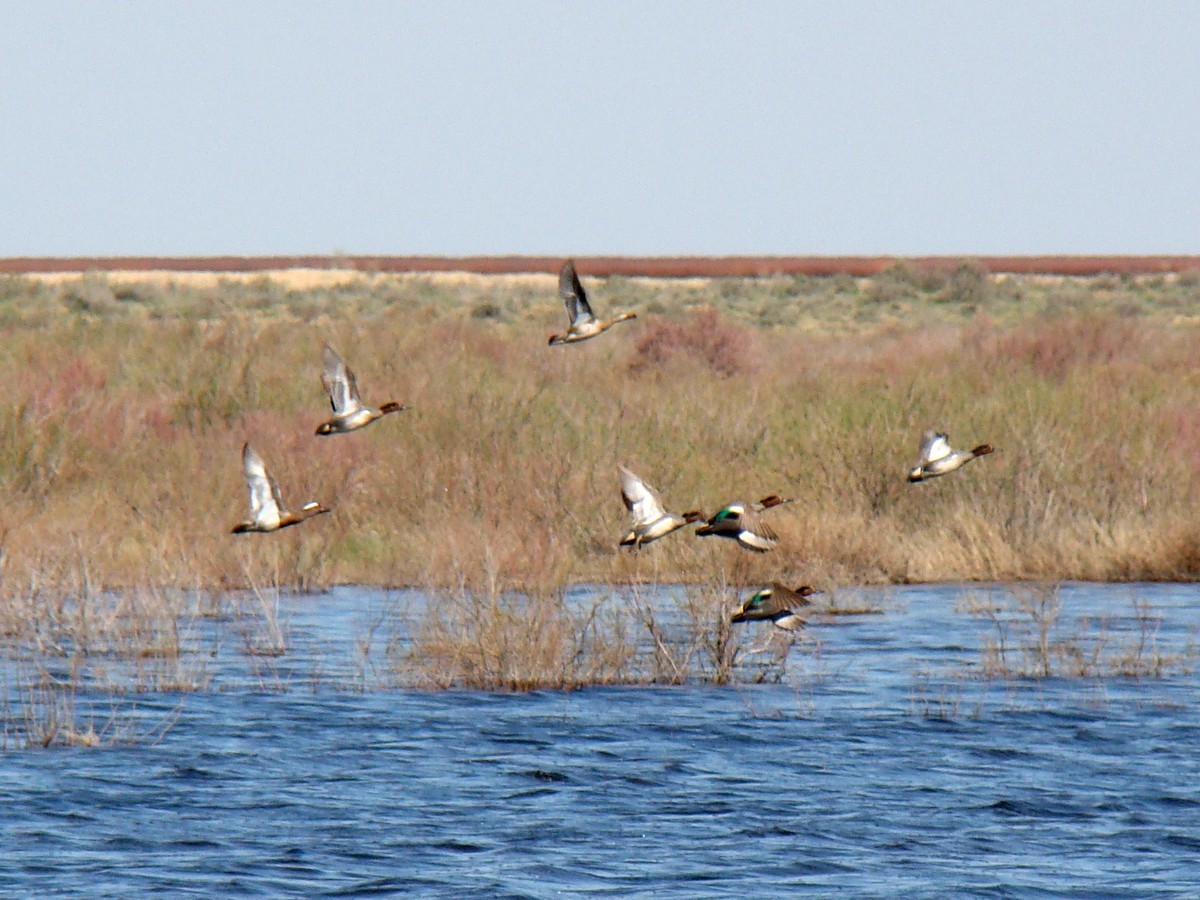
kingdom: Animalia
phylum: Chordata
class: Aves
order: Anseriformes
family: Anatidae
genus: Anas
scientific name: Anas crecca
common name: Eurasian teal
